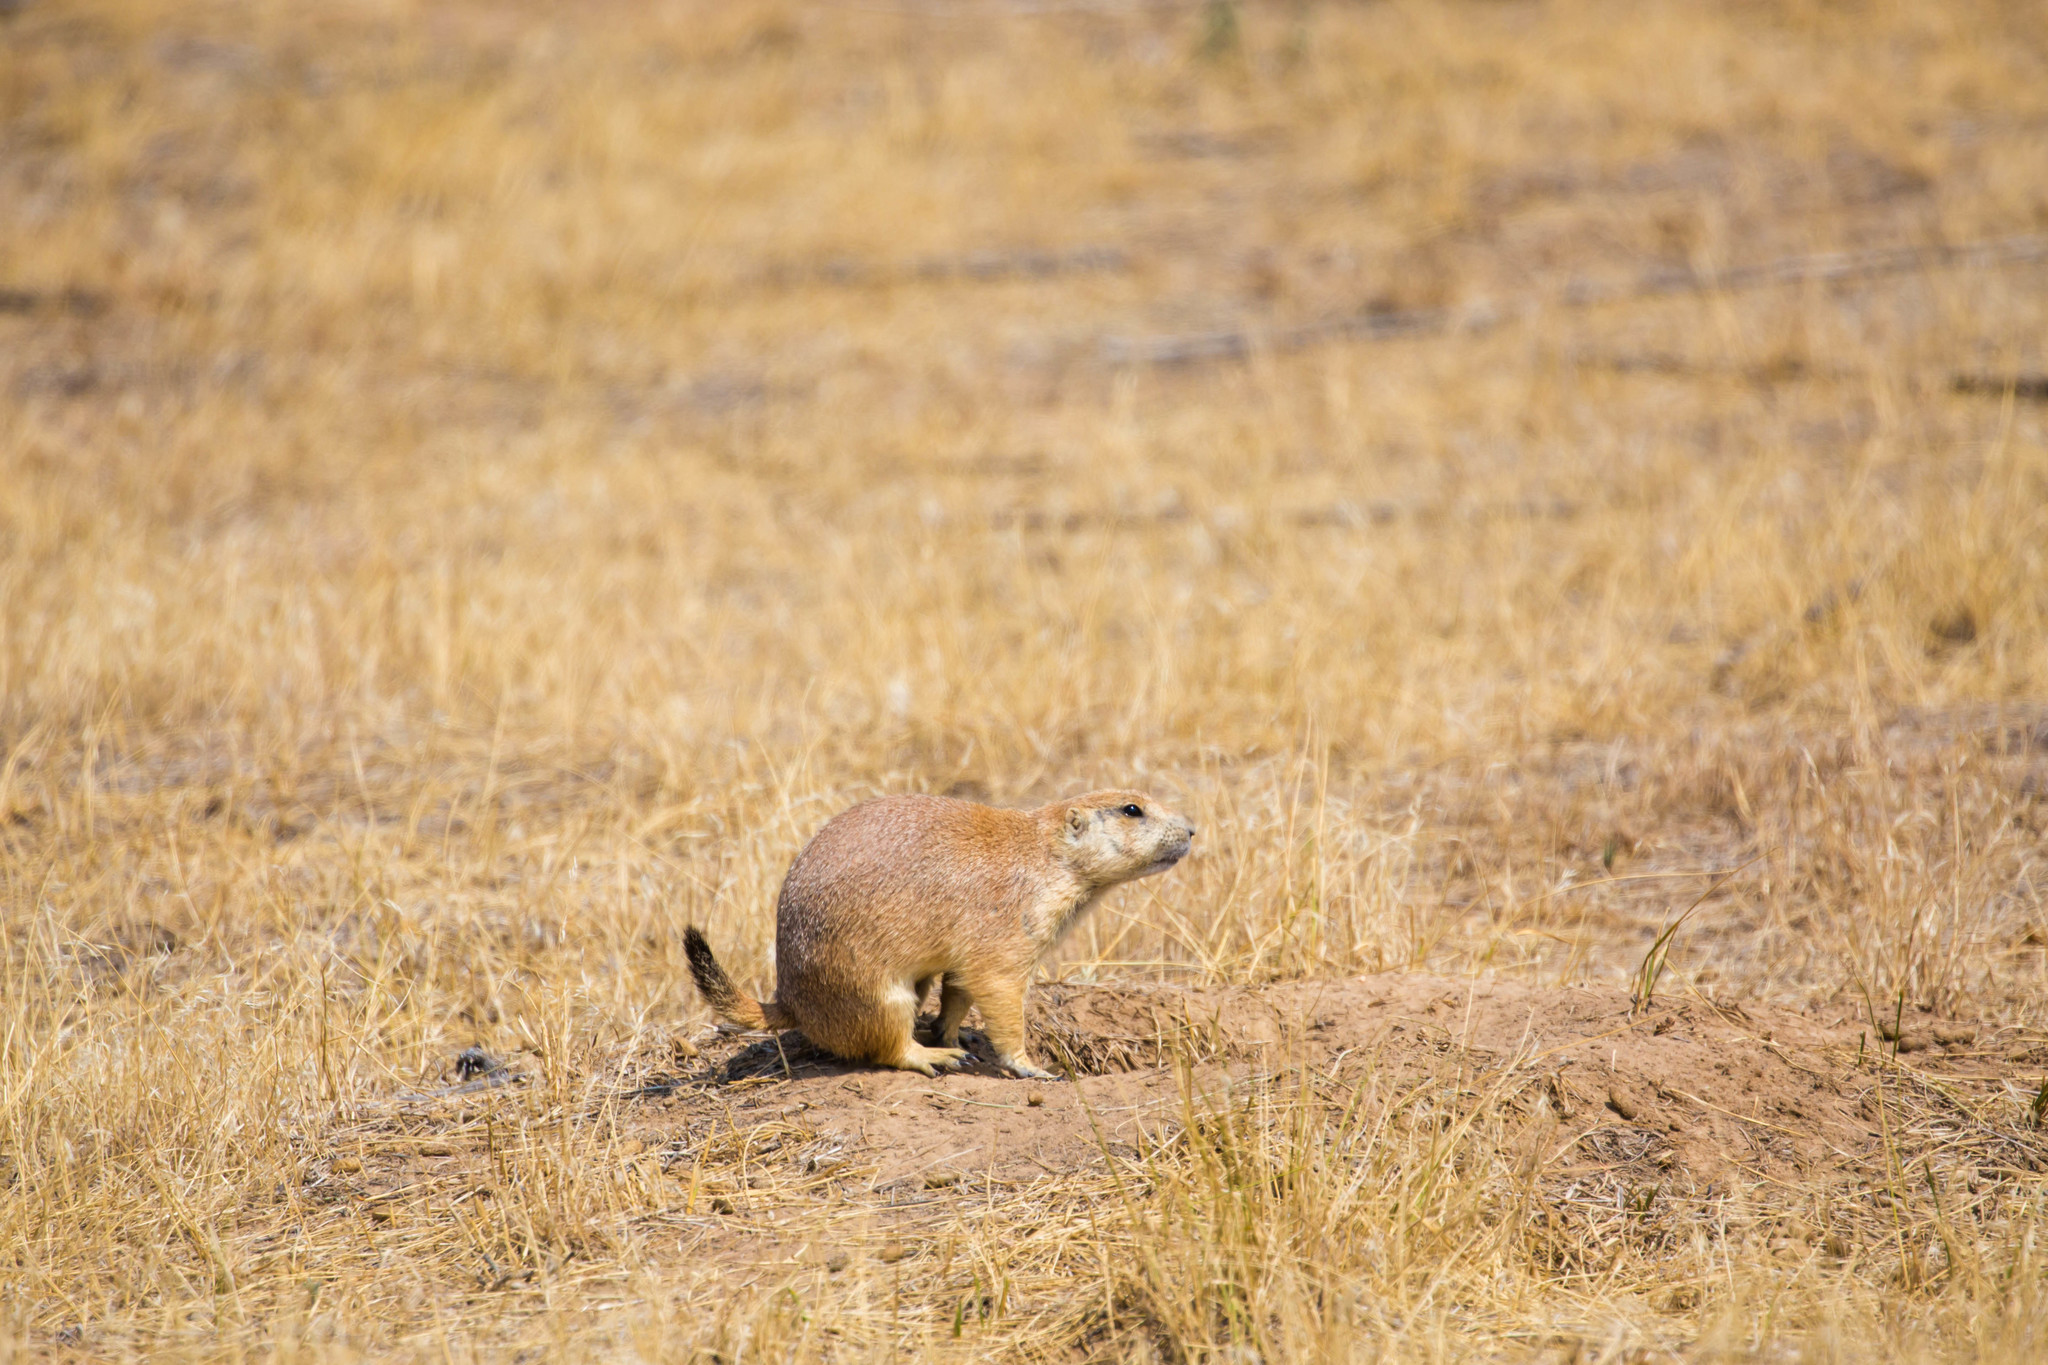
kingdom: Animalia
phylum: Chordata
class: Mammalia
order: Rodentia
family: Sciuridae
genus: Cynomys
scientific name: Cynomys ludovicianus
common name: Black-tailed prairie dog
